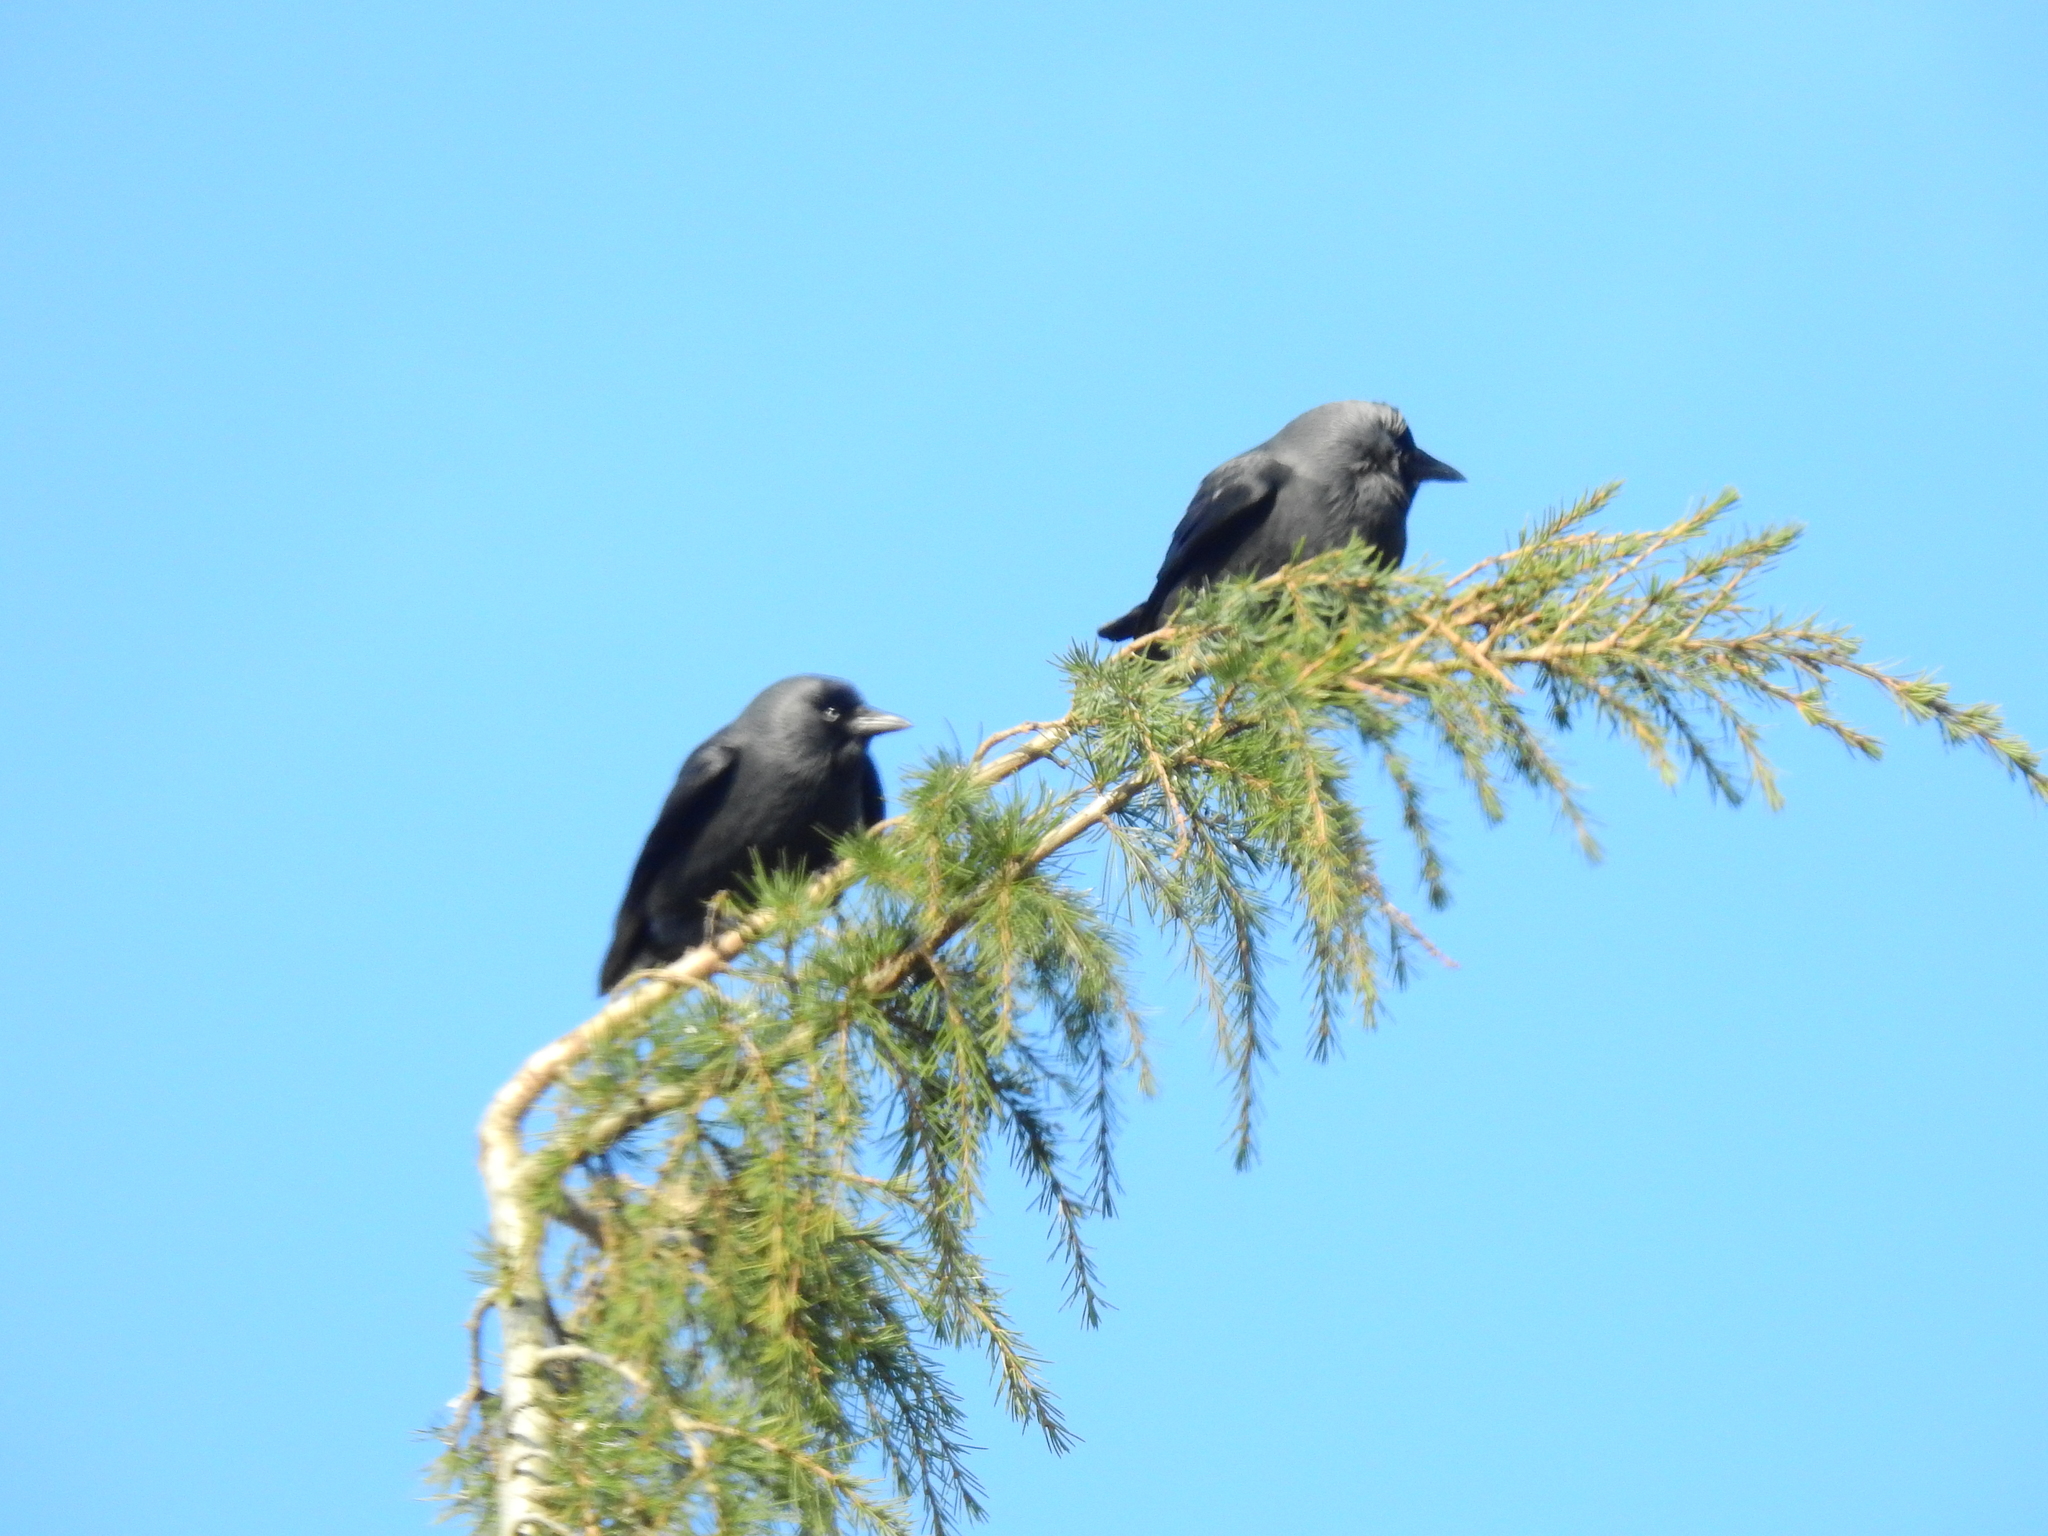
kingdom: Animalia
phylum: Chordata
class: Aves
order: Passeriformes
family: Corvidae
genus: Coloeus
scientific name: Coloeus monedula
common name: Western jackdaw
